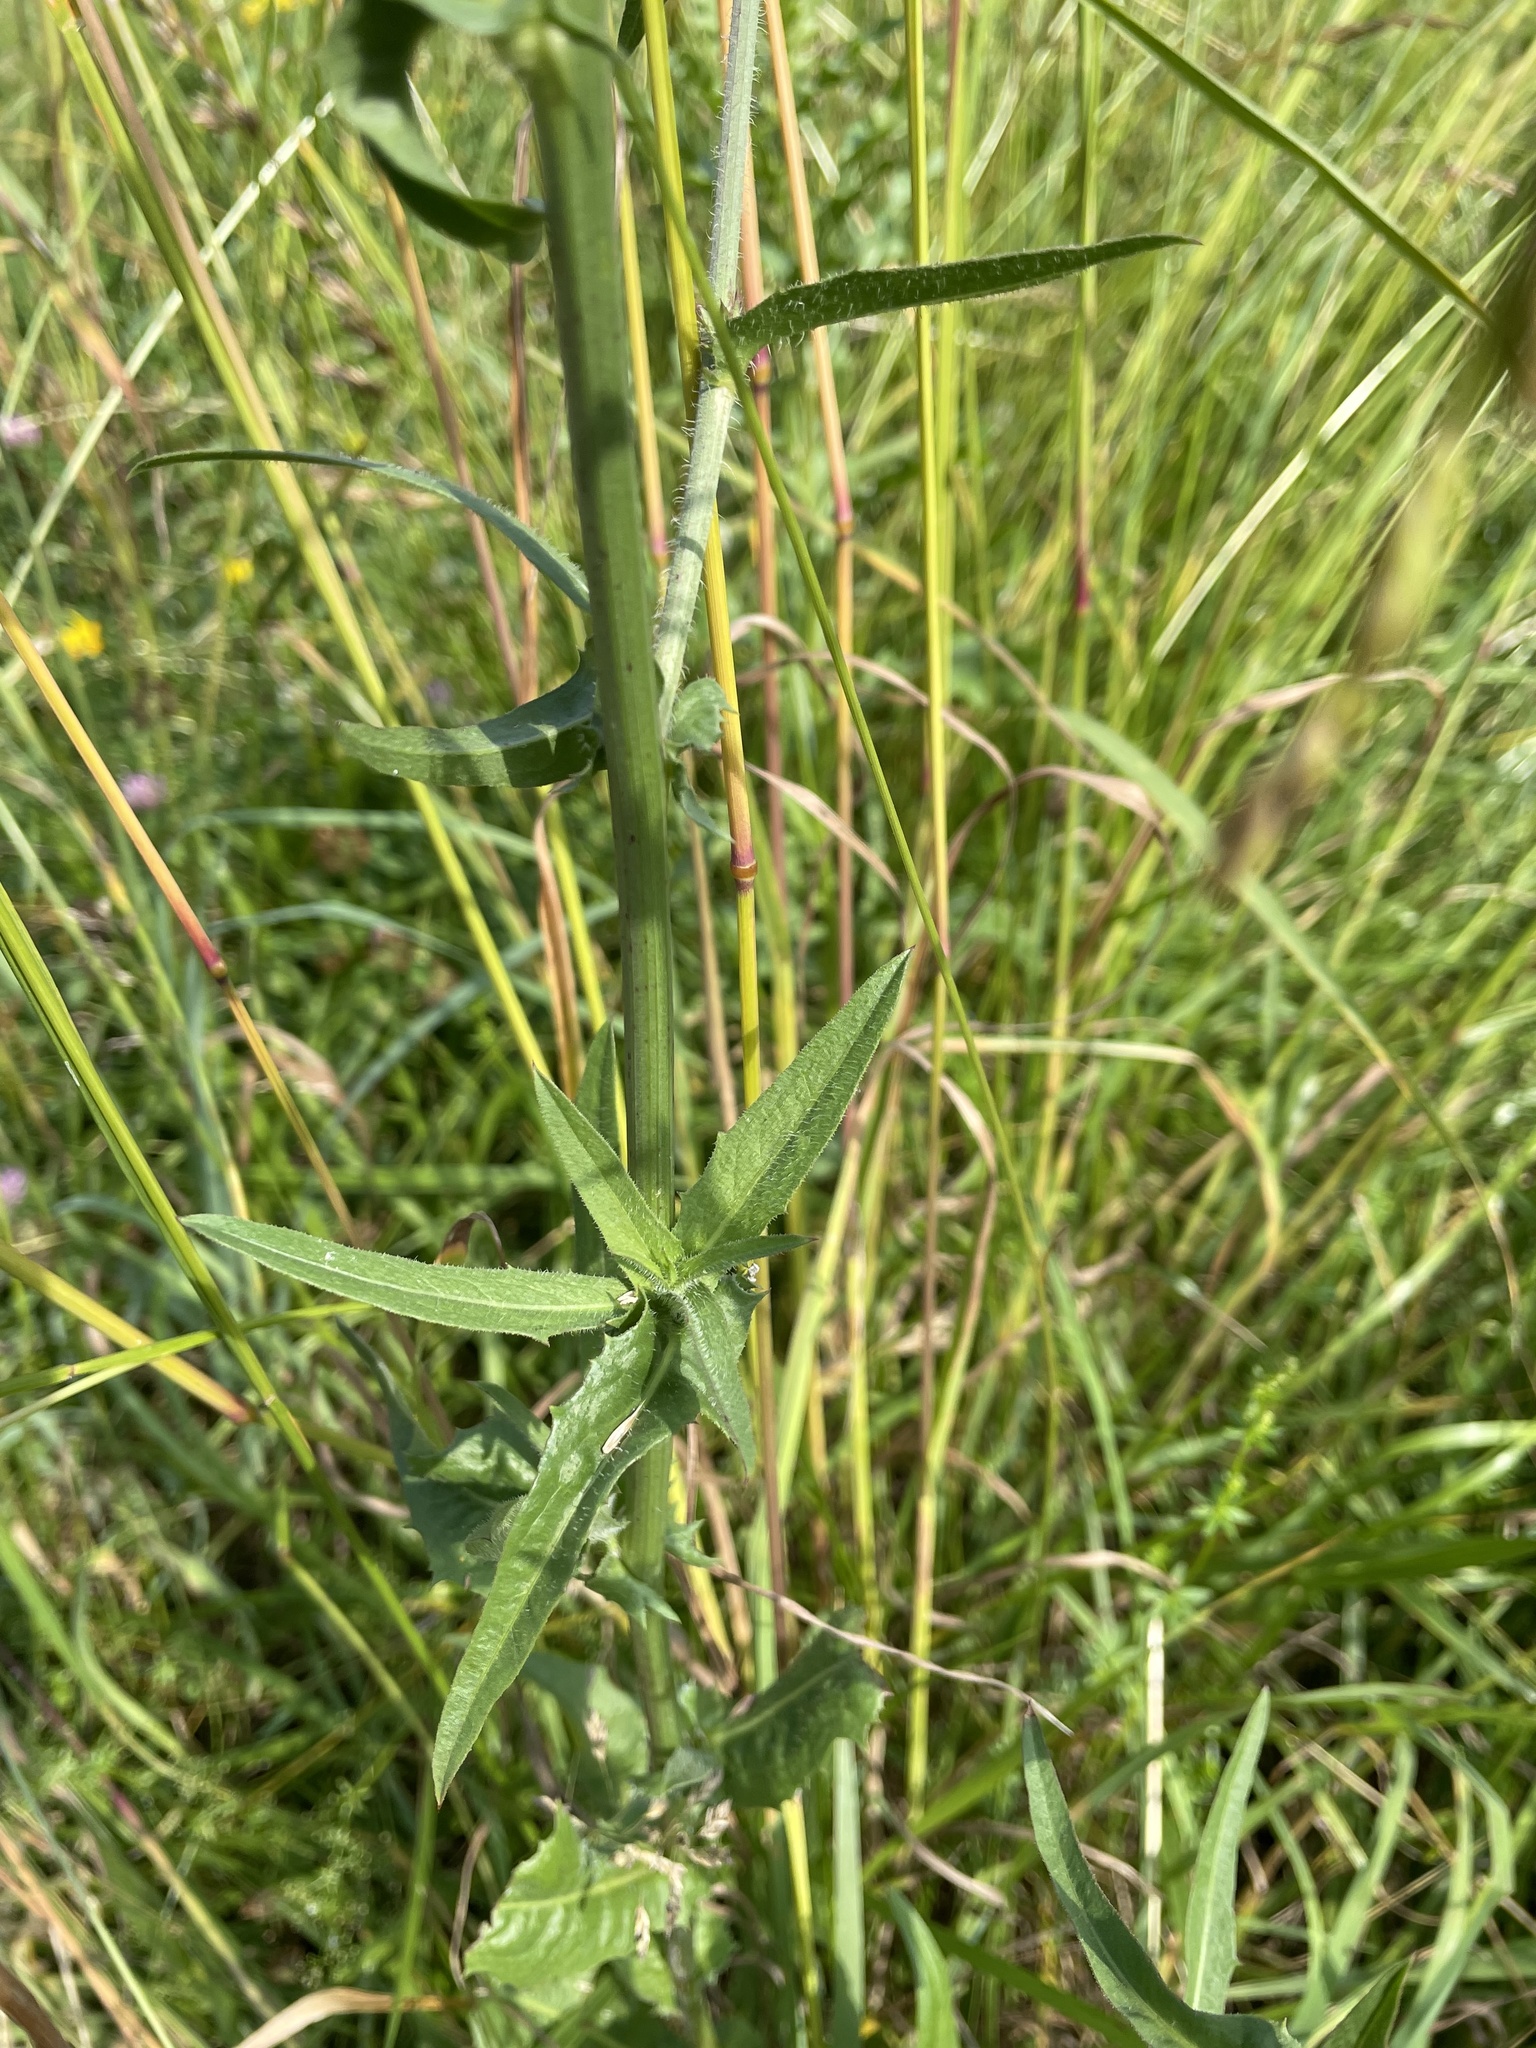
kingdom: Plantae
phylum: Tracheophyta
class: Magnoliopsida
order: Asterales
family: Asteraceae
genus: Cichorium
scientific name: Cichorium intybus
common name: Chicory
